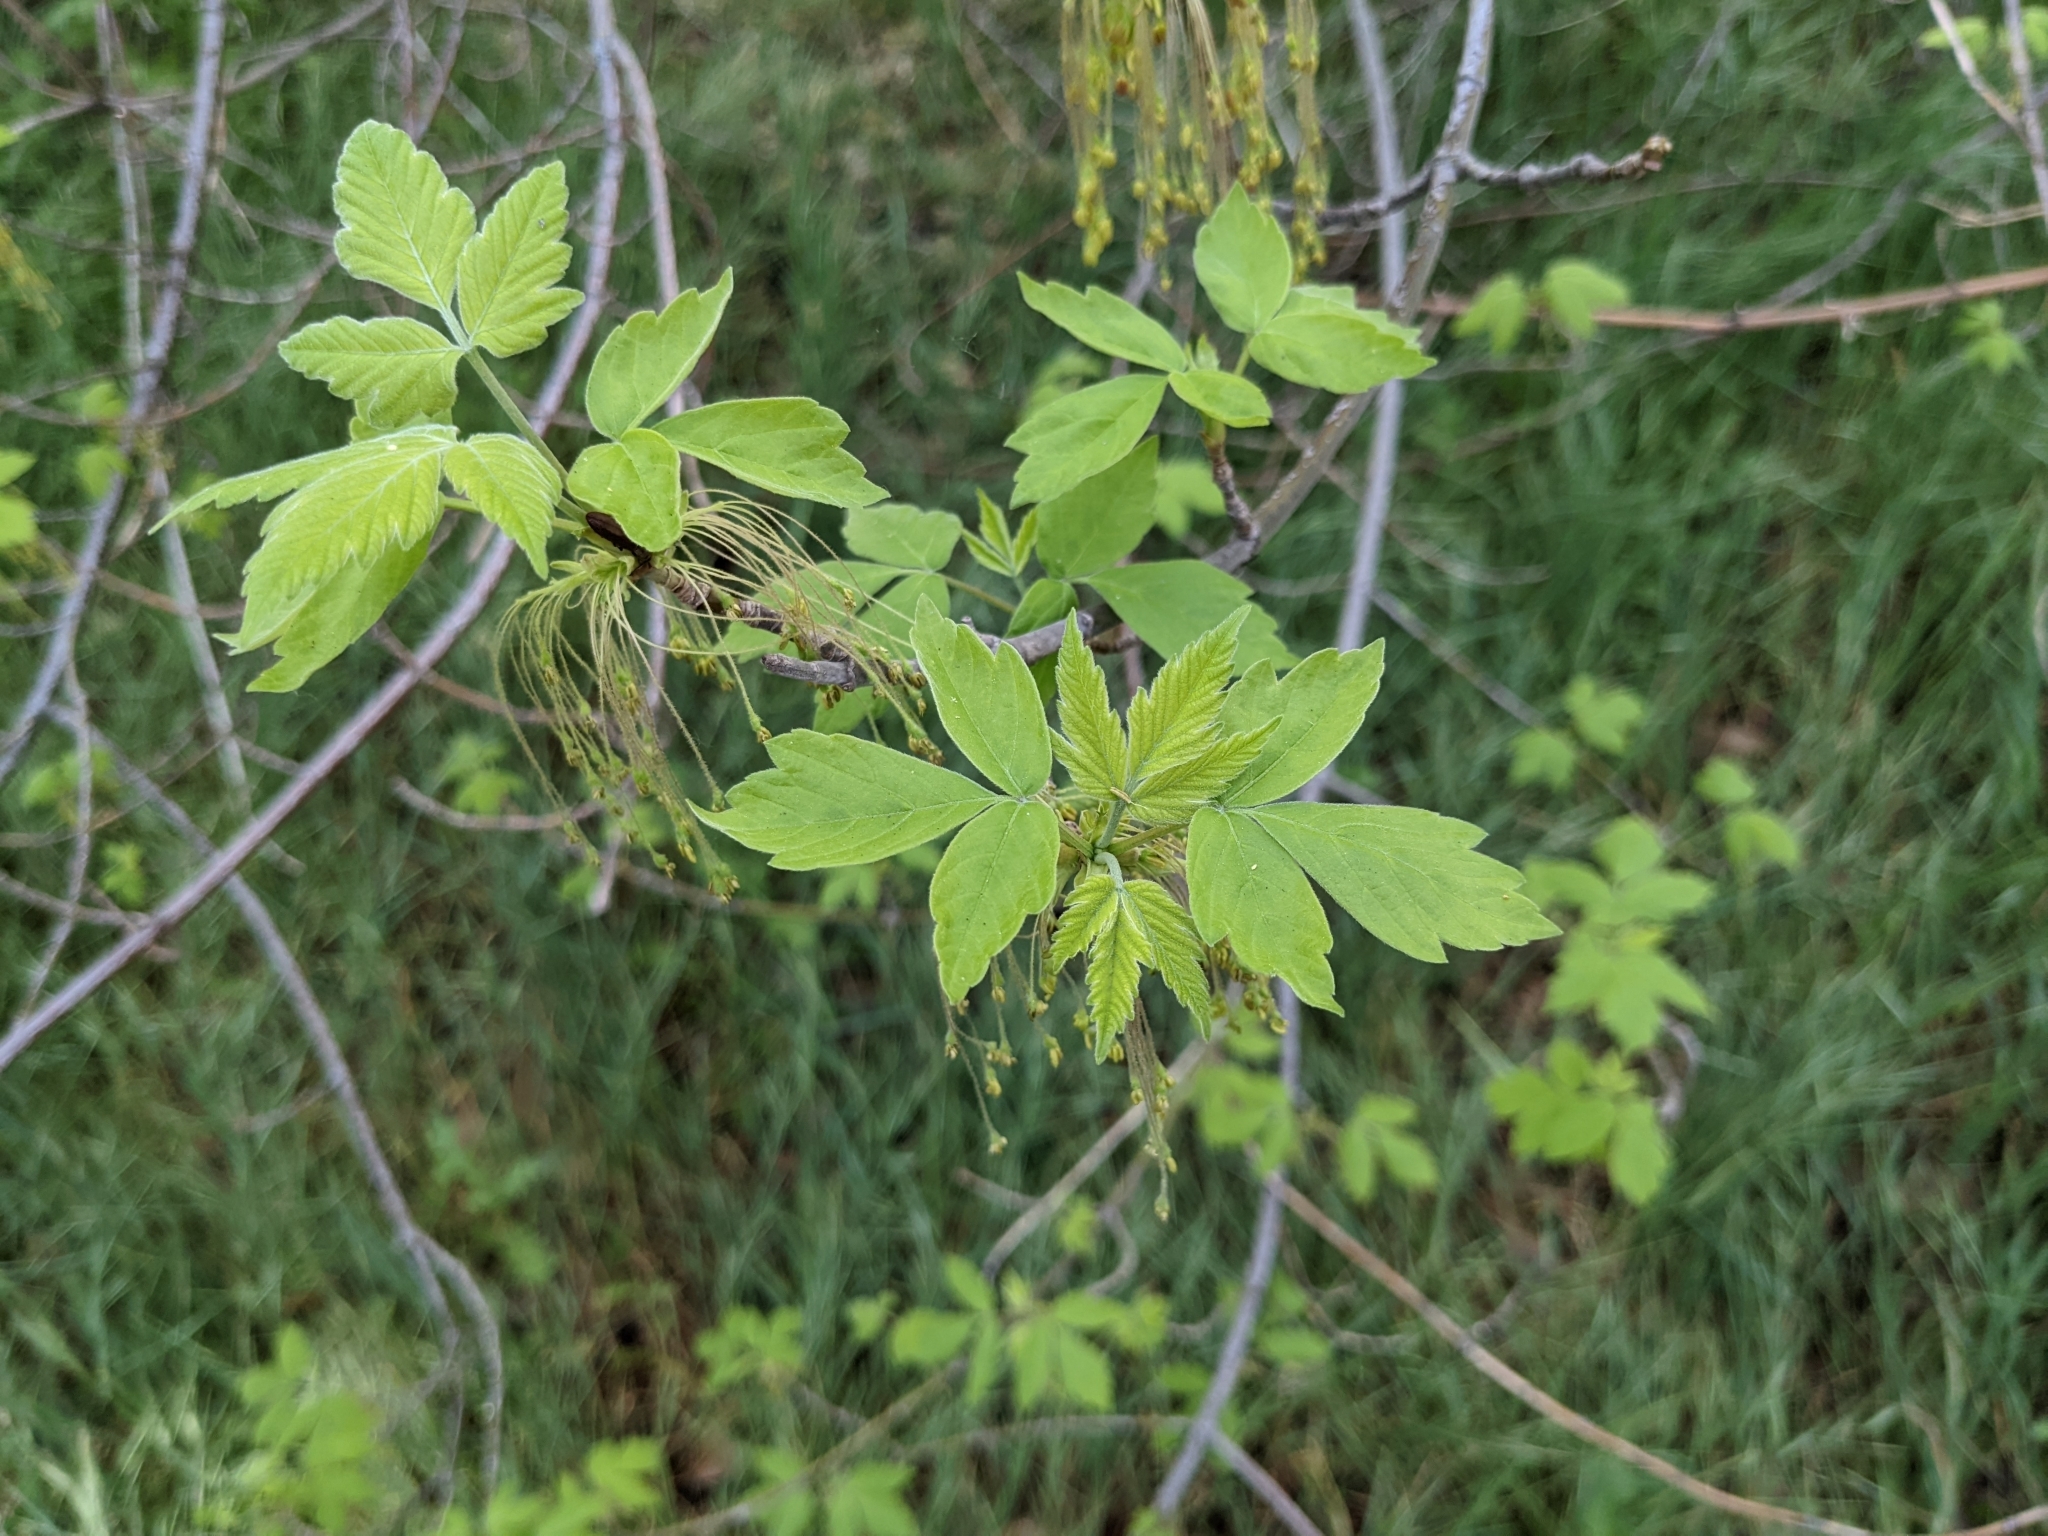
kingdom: Plantae
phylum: Tracheophyta
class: Magnoliopsida
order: Sapindales
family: Sapindaceae
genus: Acer
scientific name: Acer negundo
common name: Ashleaf maple
